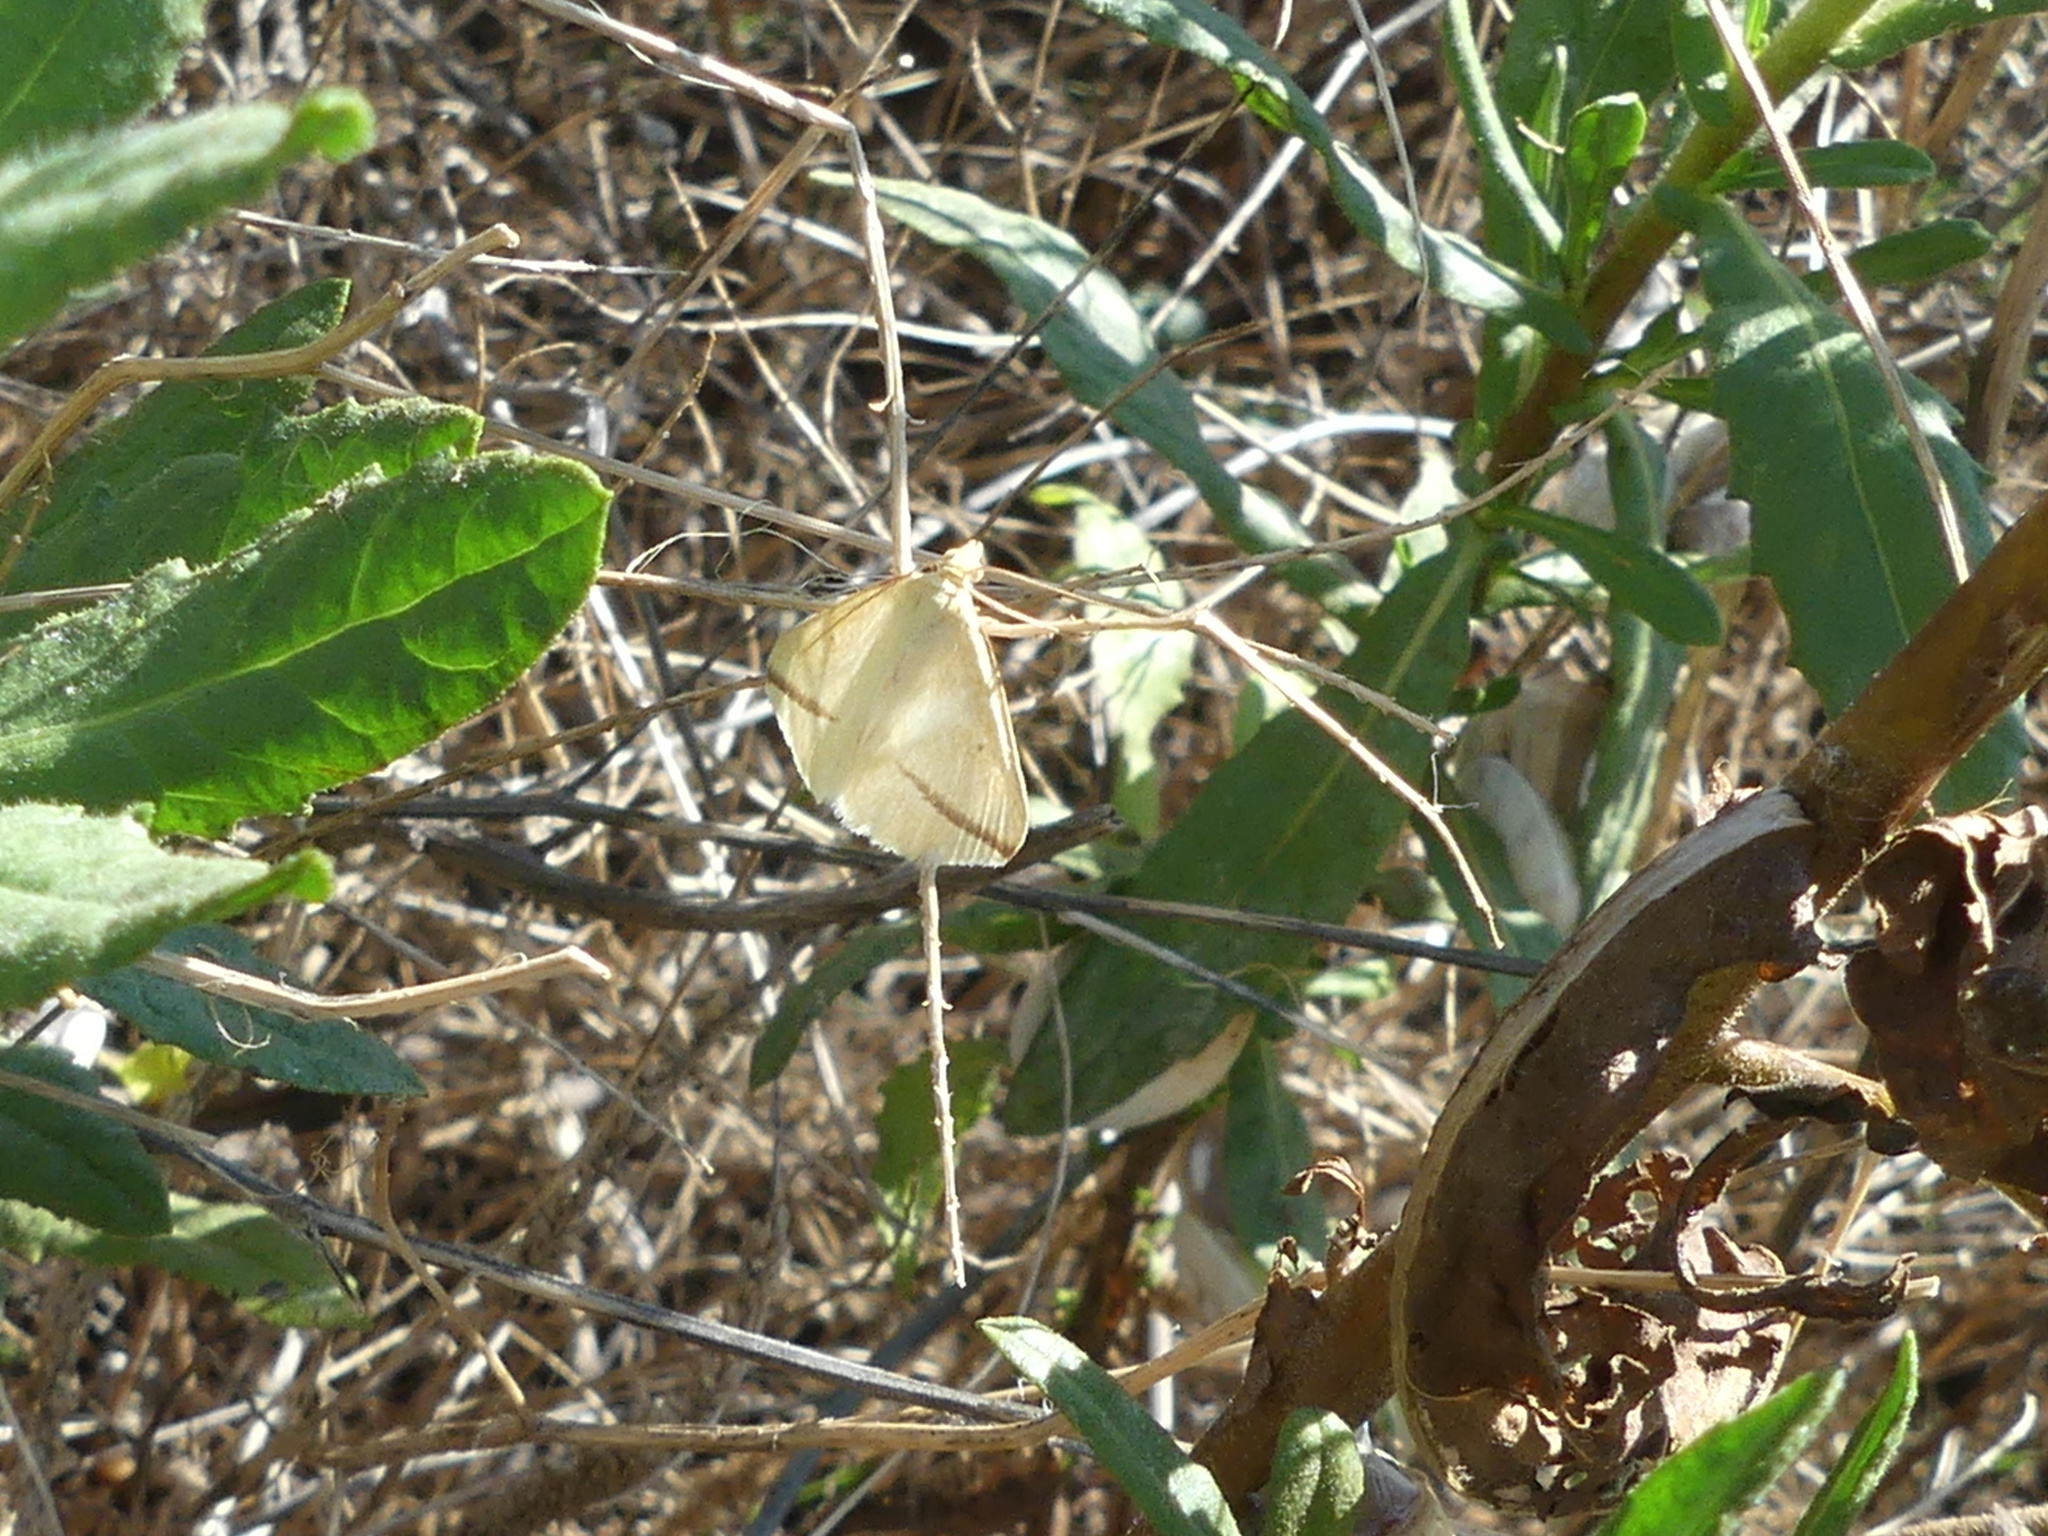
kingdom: Animalia
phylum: Arthropoda
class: Insecta
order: Lepidoptera
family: Geometridae
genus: Rhodometra
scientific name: Rhodometra sacraria
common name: Vestal
